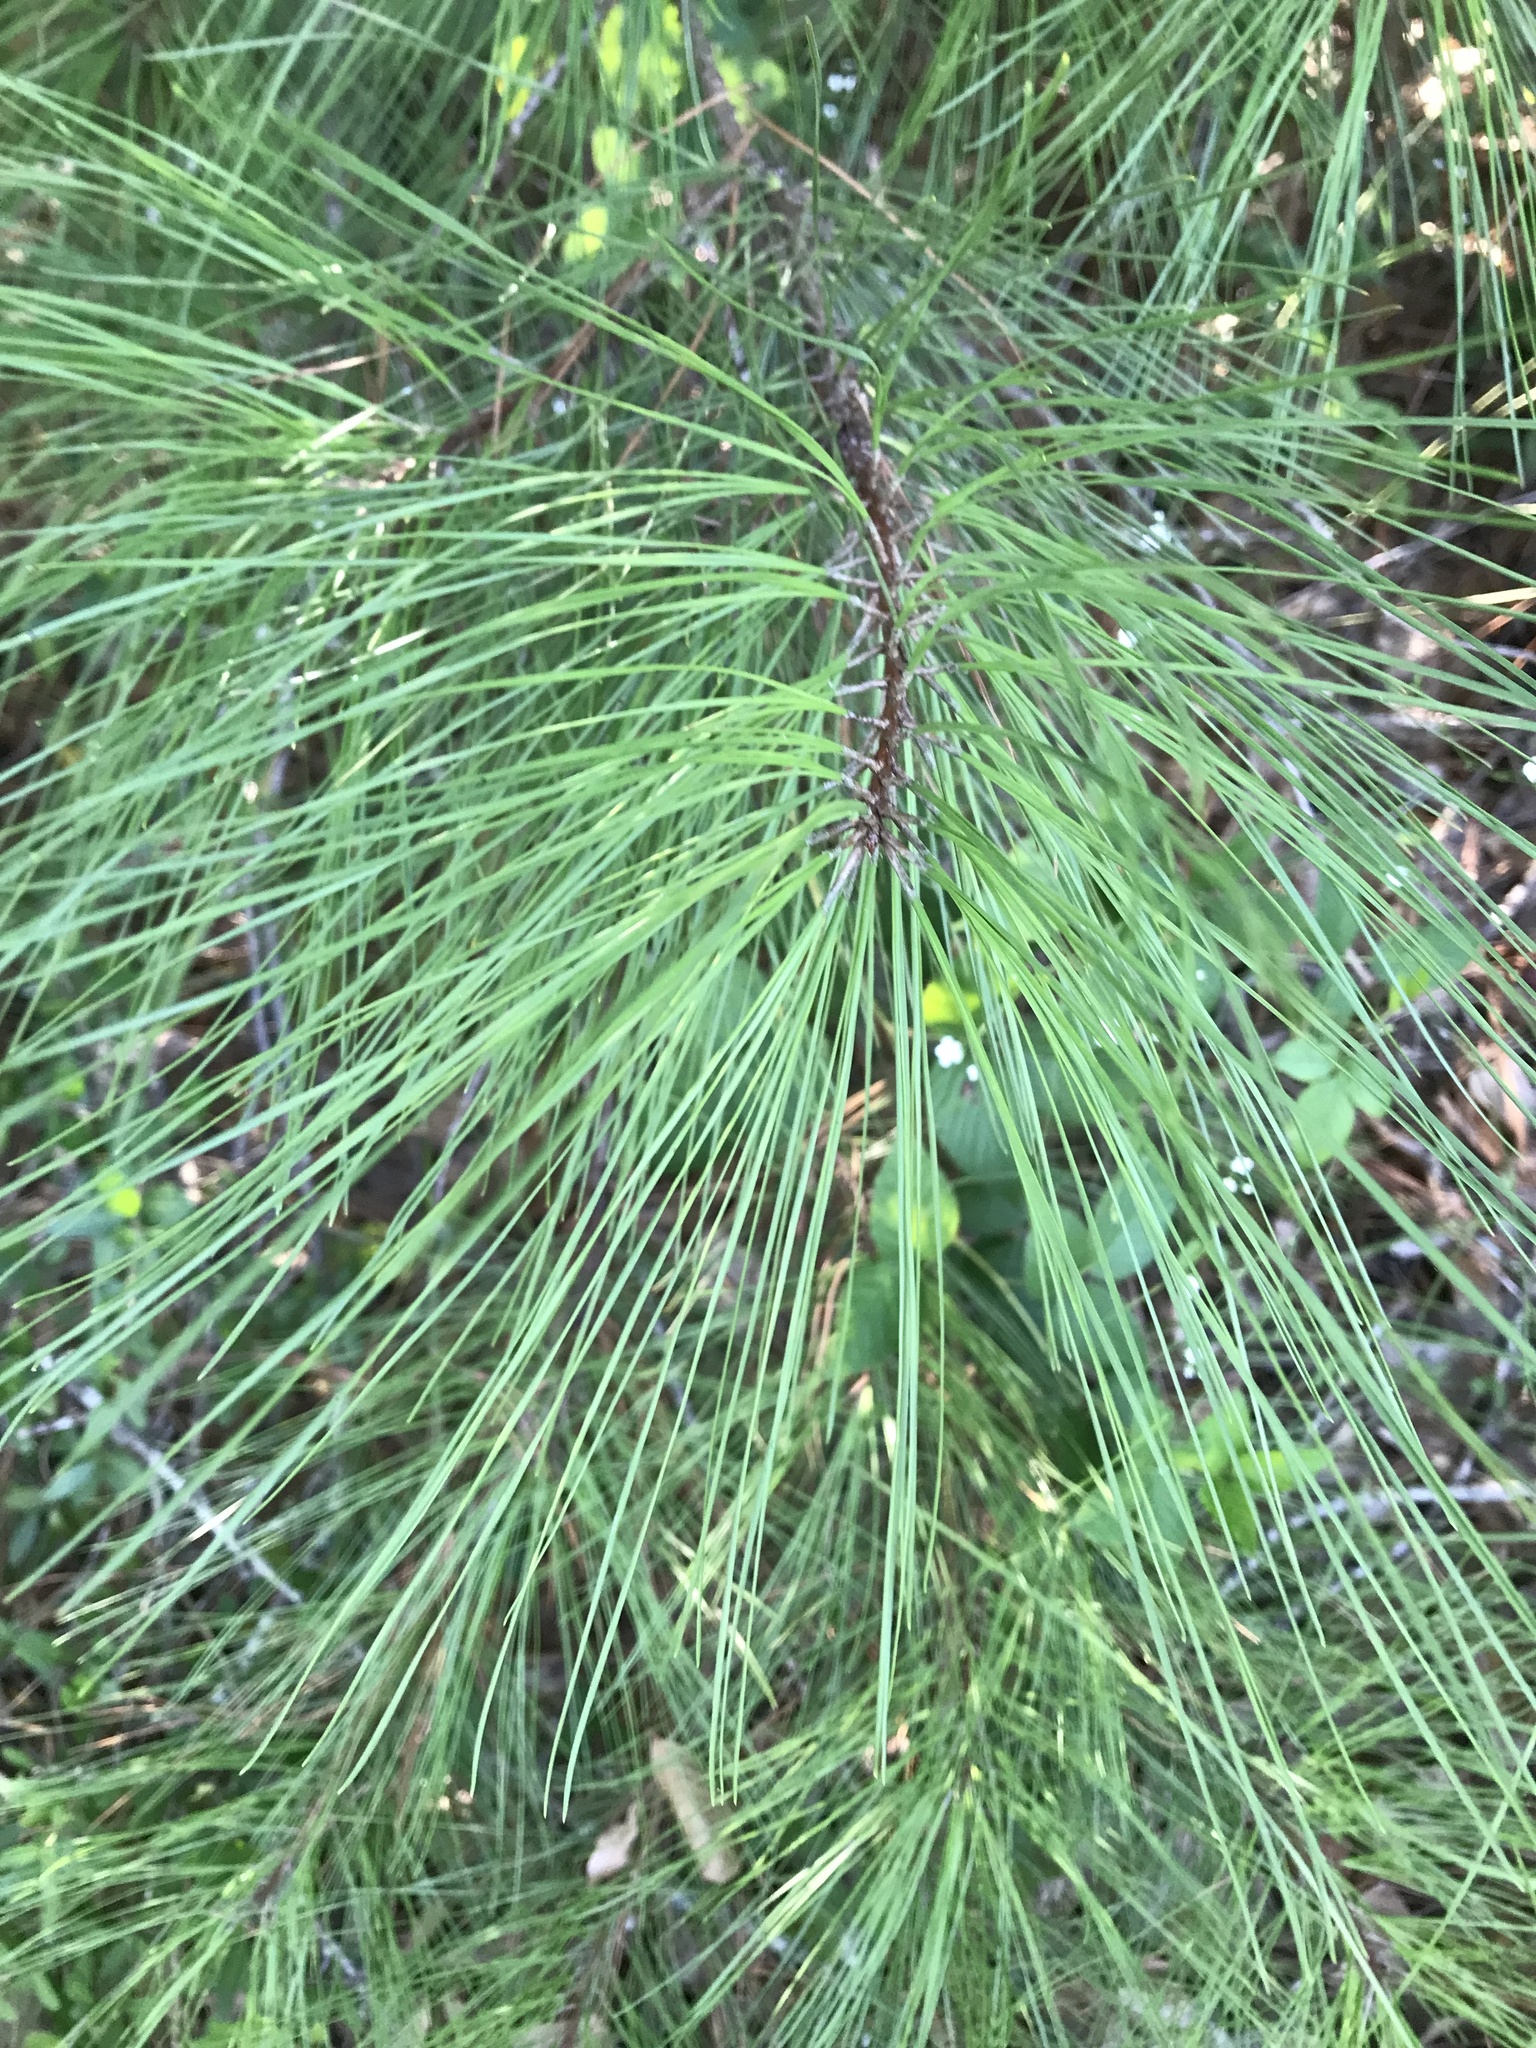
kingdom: Plantae
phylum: Tracheophyta
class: Pinopsida
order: Pinales
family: Pinaceae
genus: Pinus
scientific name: Pinus taeda
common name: Loblolly pine
